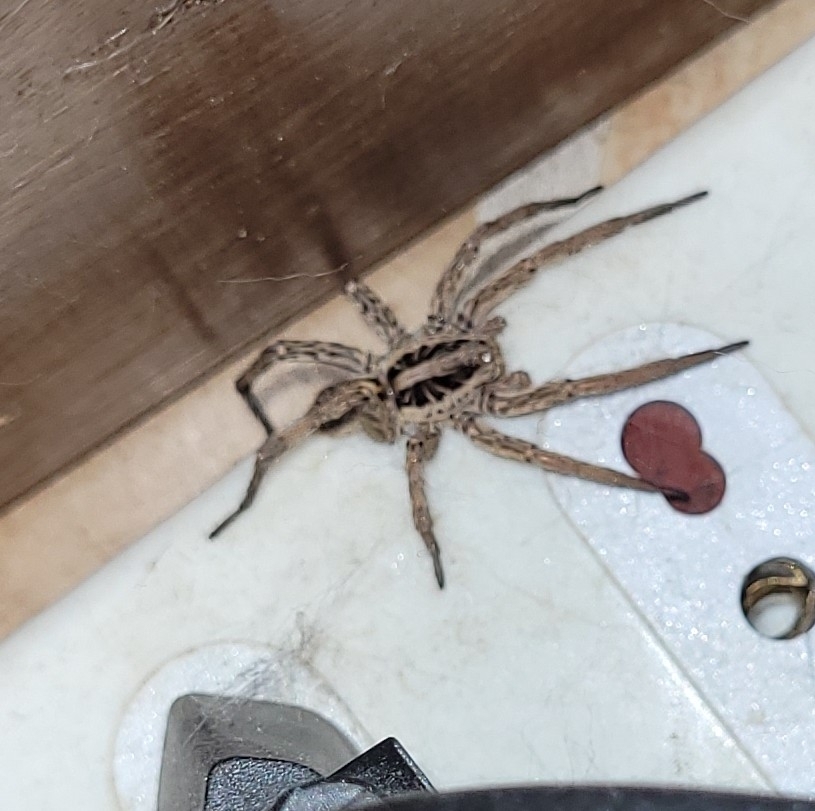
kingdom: Animalia
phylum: Arthropoda
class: Arachnida
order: Araneae
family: Lycosidae
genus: Hogna
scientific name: Hogna radiata
